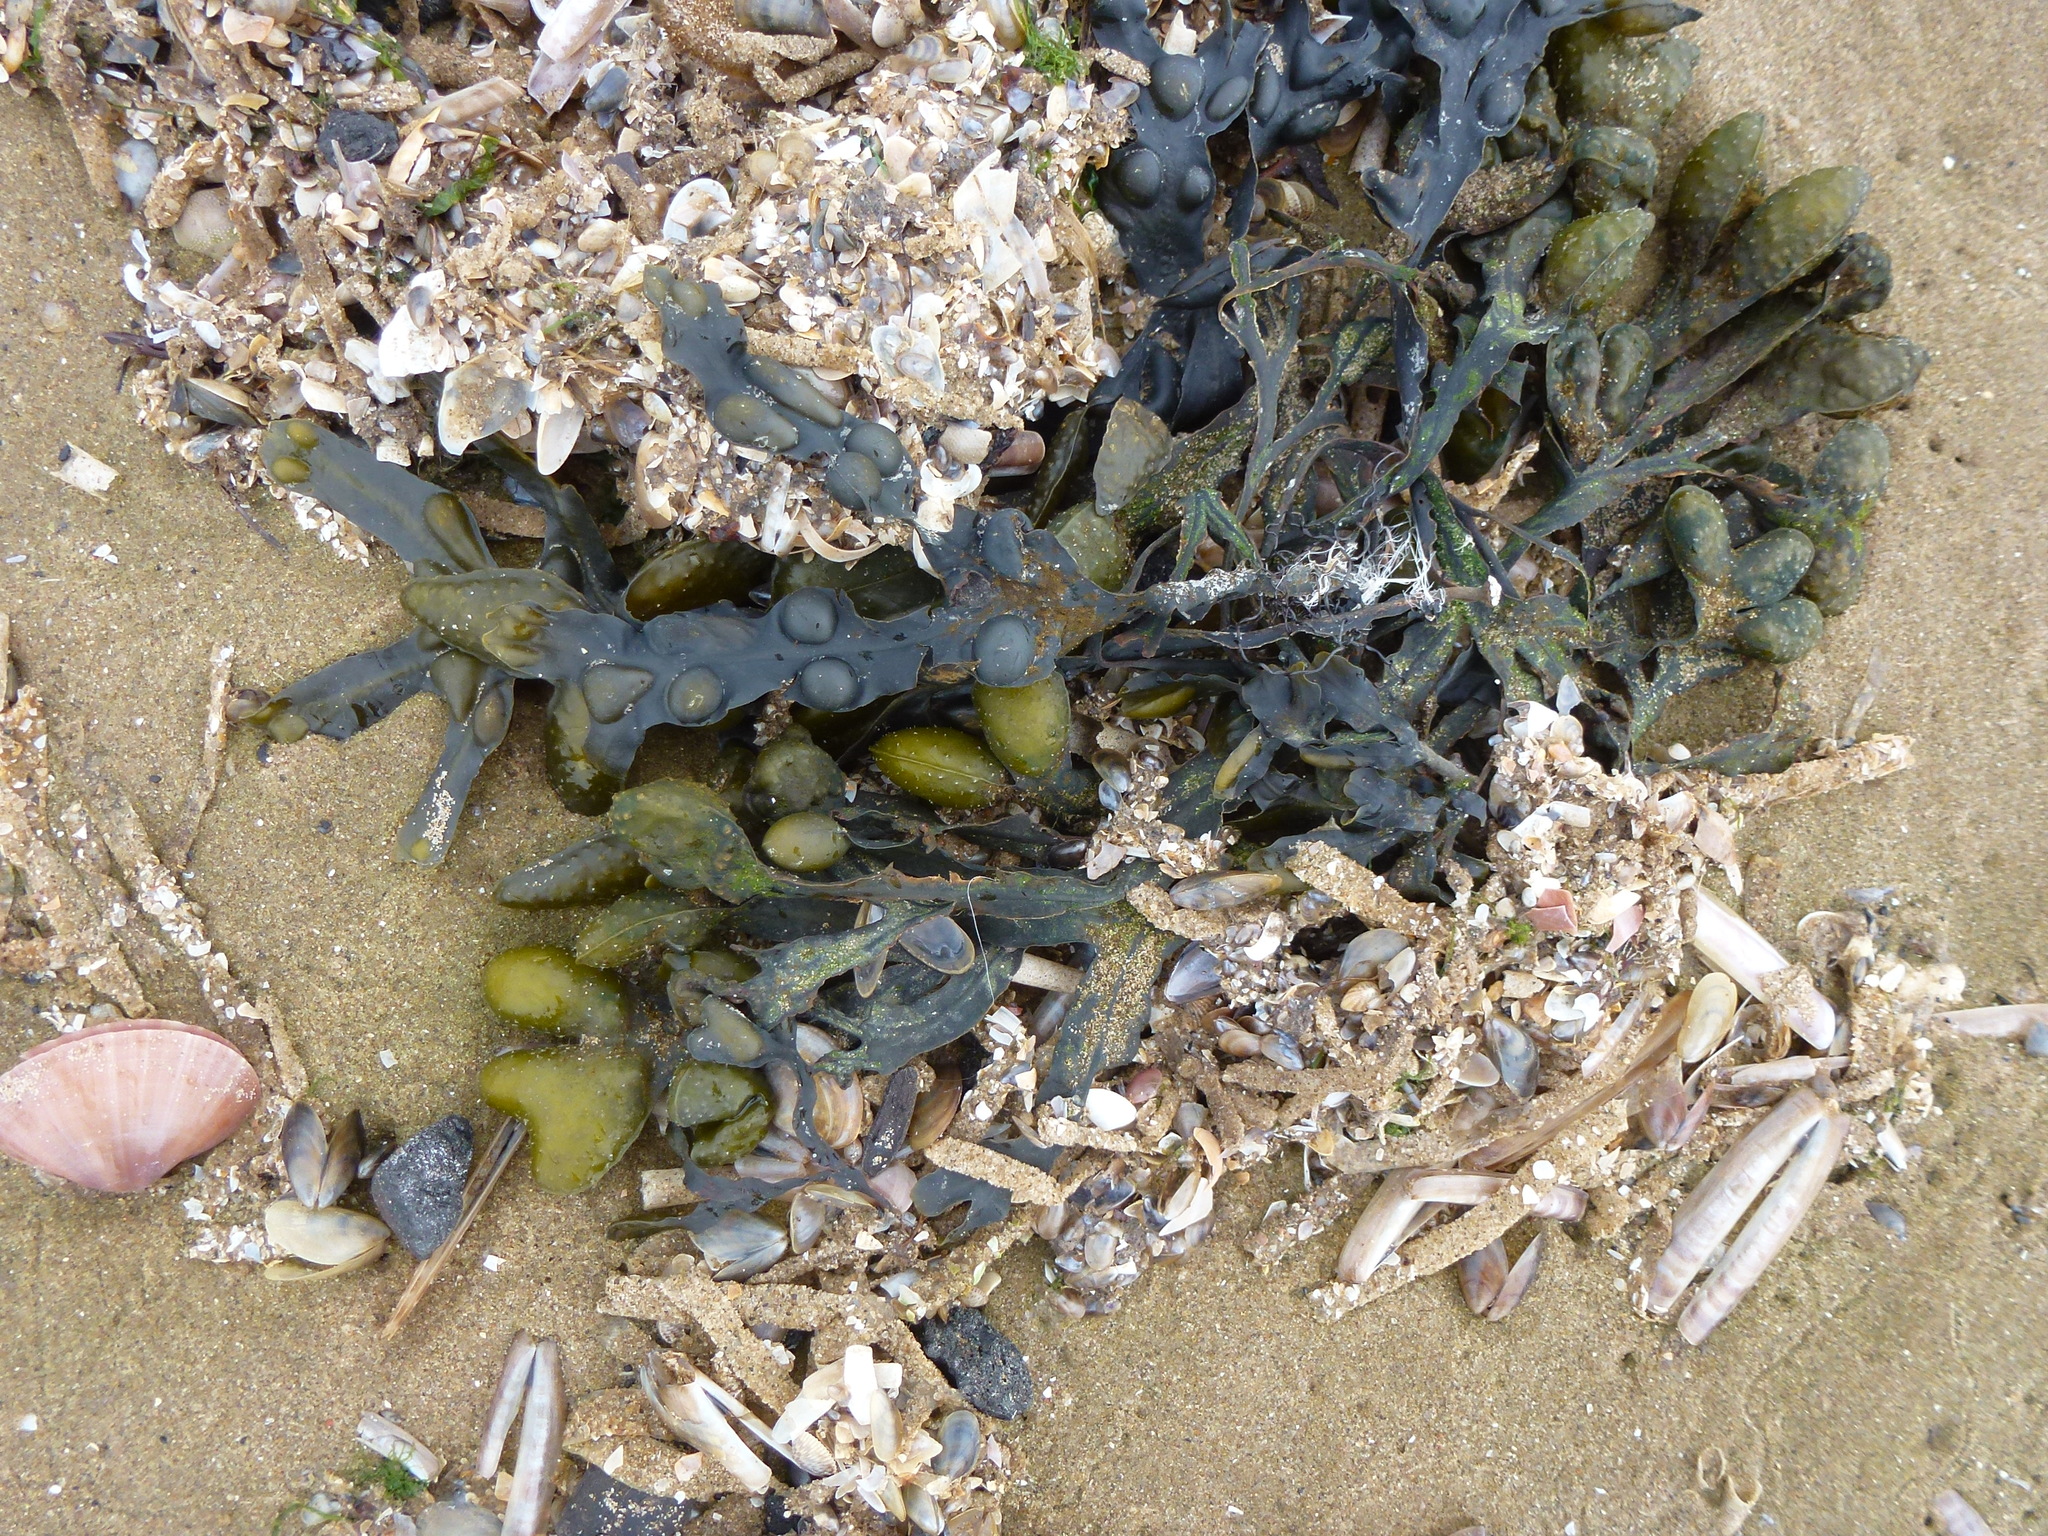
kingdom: Chromista
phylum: Ochrophyta
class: Phaeophyceae
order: Fucales
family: Fucaceae
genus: Fucus
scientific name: Fucus vesiculosus
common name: Bladder wrack
